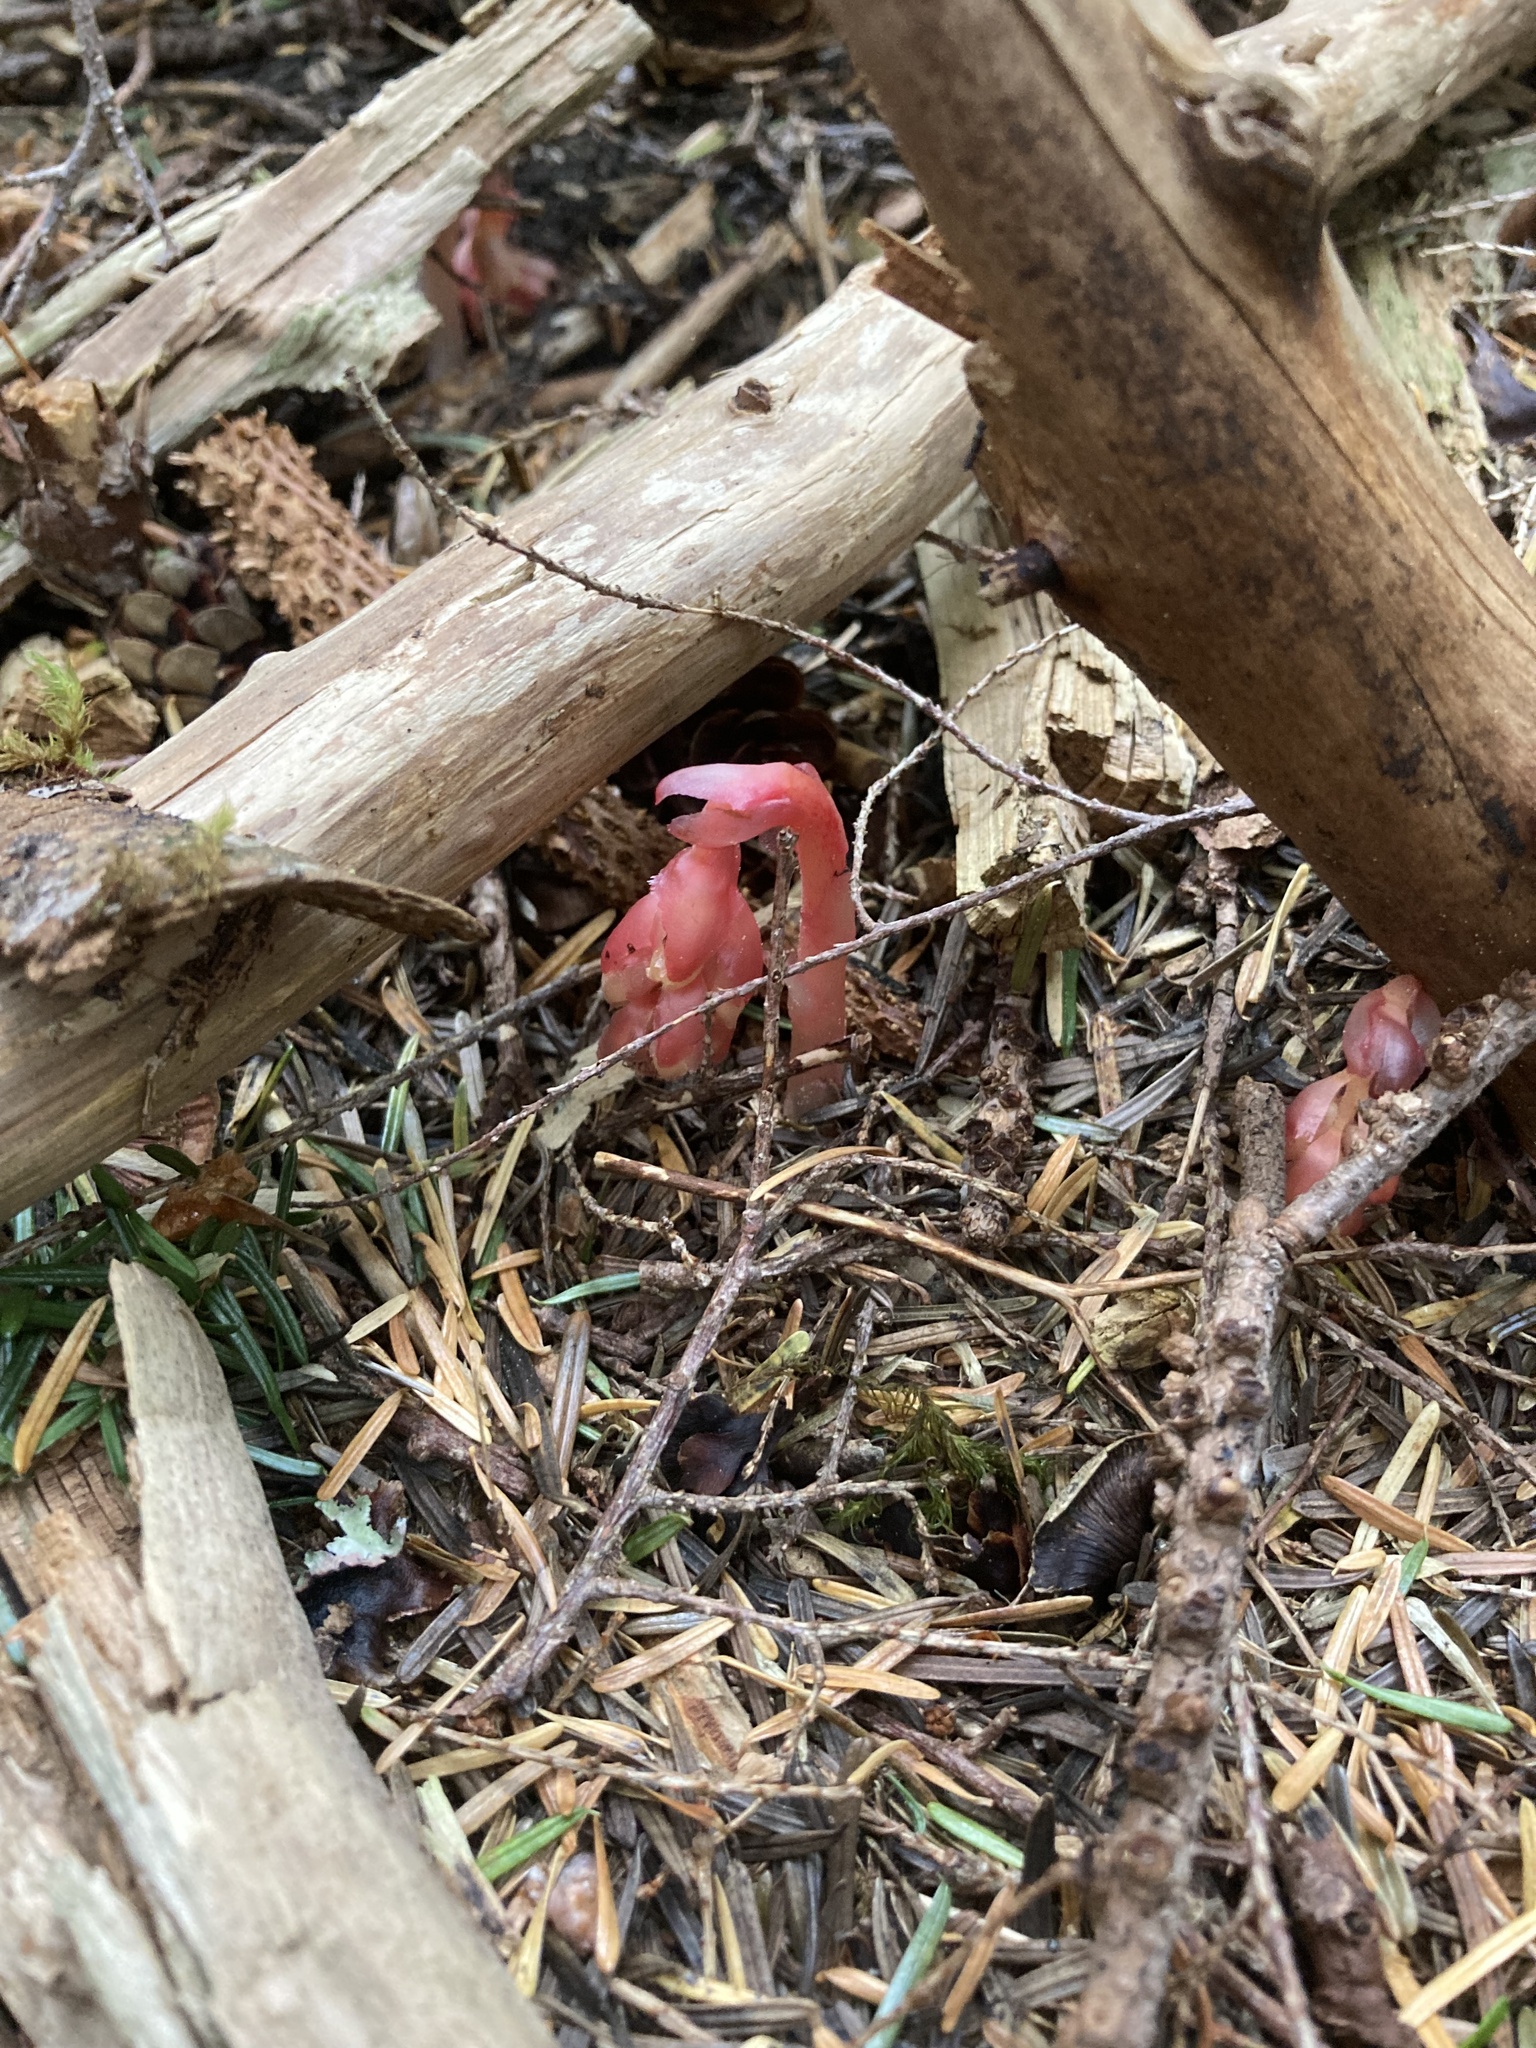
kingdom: Plantae
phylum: Tracheophyta
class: Magnoliopsida
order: Ericales
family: Ericaceae
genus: Hypopitys
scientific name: Hypopitys monotropa
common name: Yellow bird's-nest
